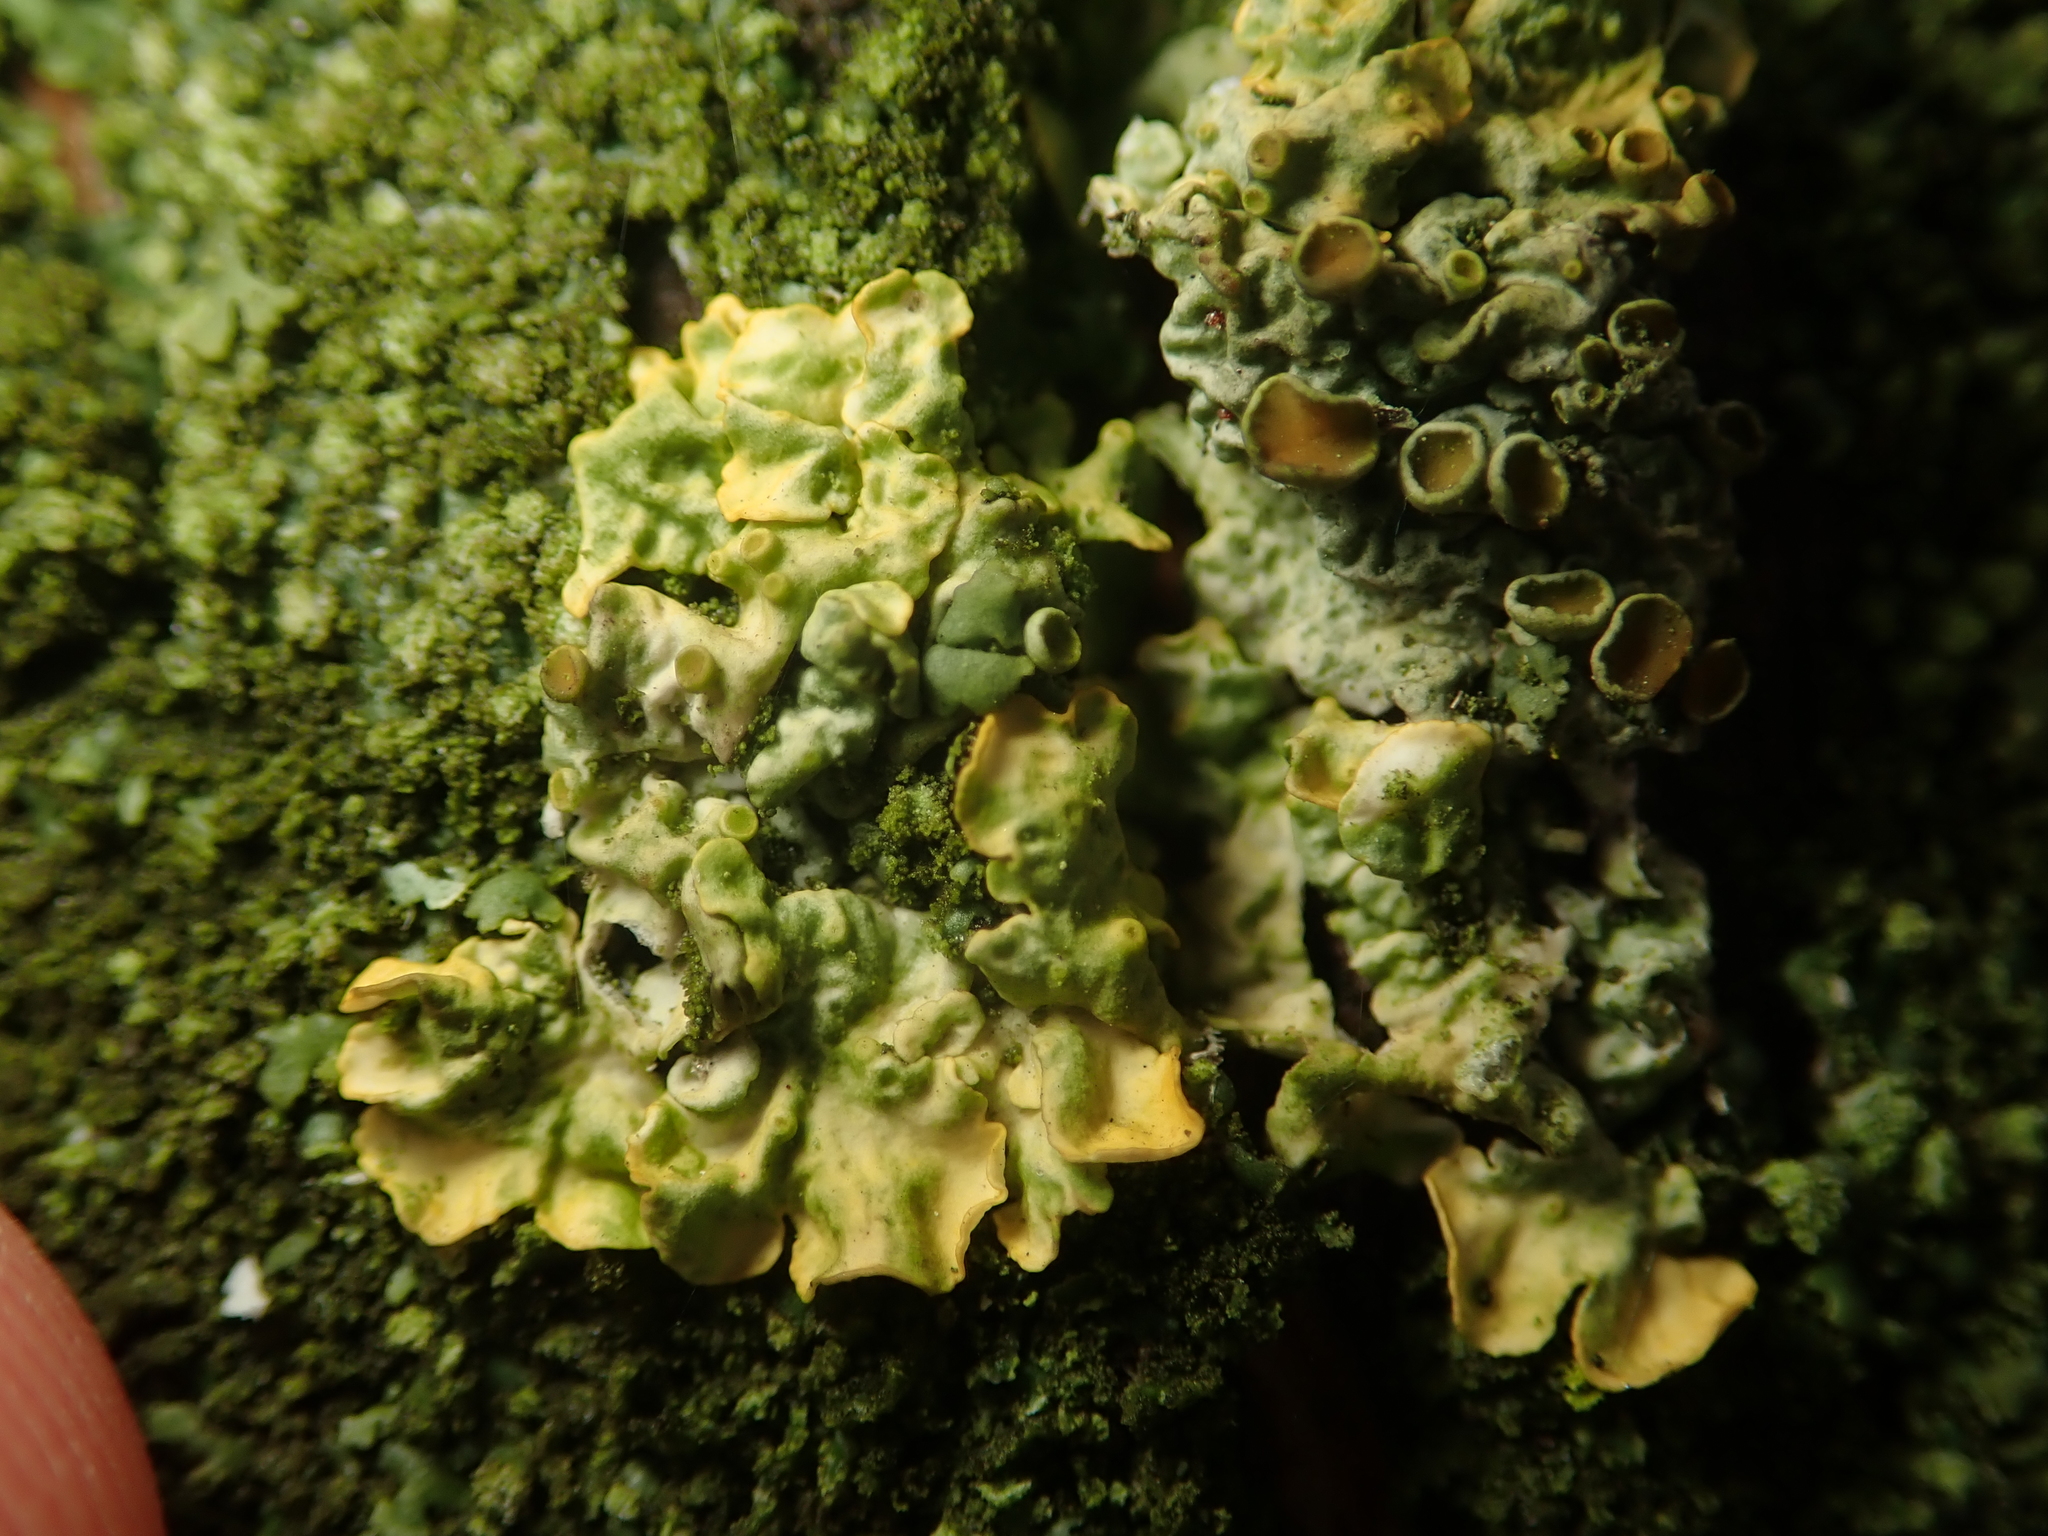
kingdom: Fungi
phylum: Ascomycota
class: Lecanoromycetes
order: Teloschistales
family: Teloschistaceae
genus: Xanthoria
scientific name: Xanthoria parietina
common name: Common orange lichen
